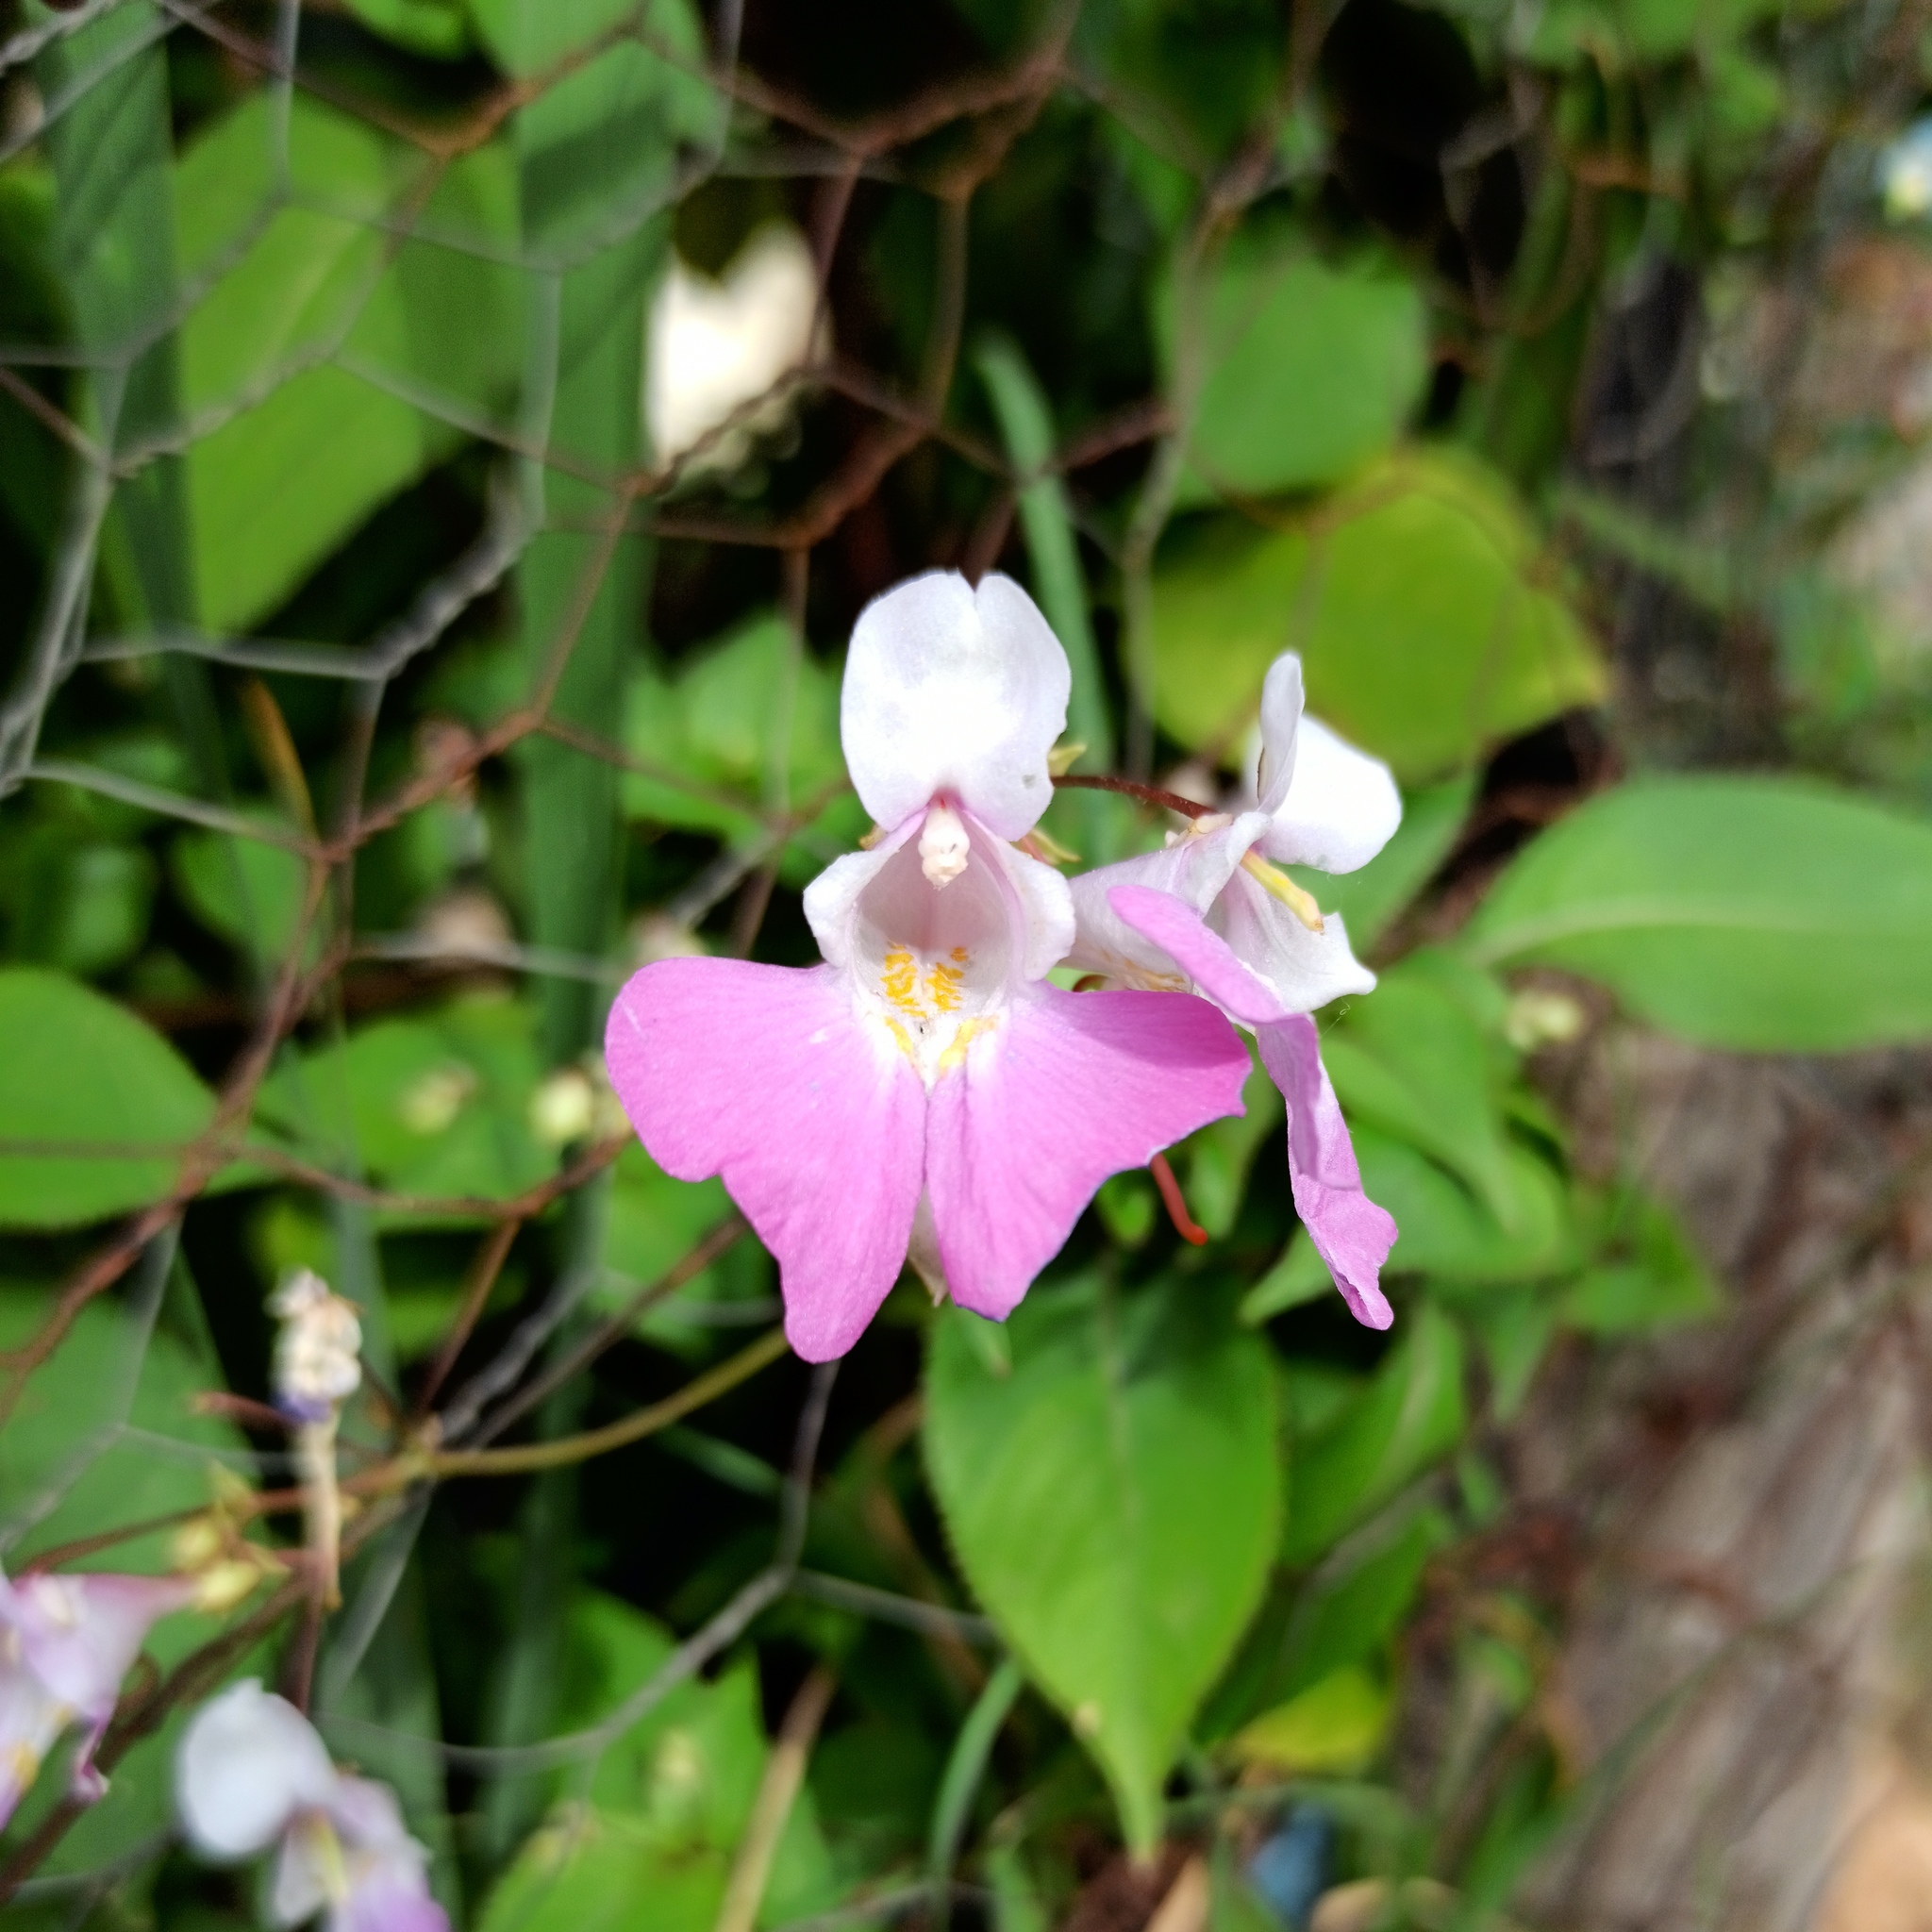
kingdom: Plantae
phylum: Tracheophyta
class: Magnoliopsida
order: Ericales
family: Balsaminaceae
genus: Impatiens
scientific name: Impatiens balfourii
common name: Balfour's touch-me-not
